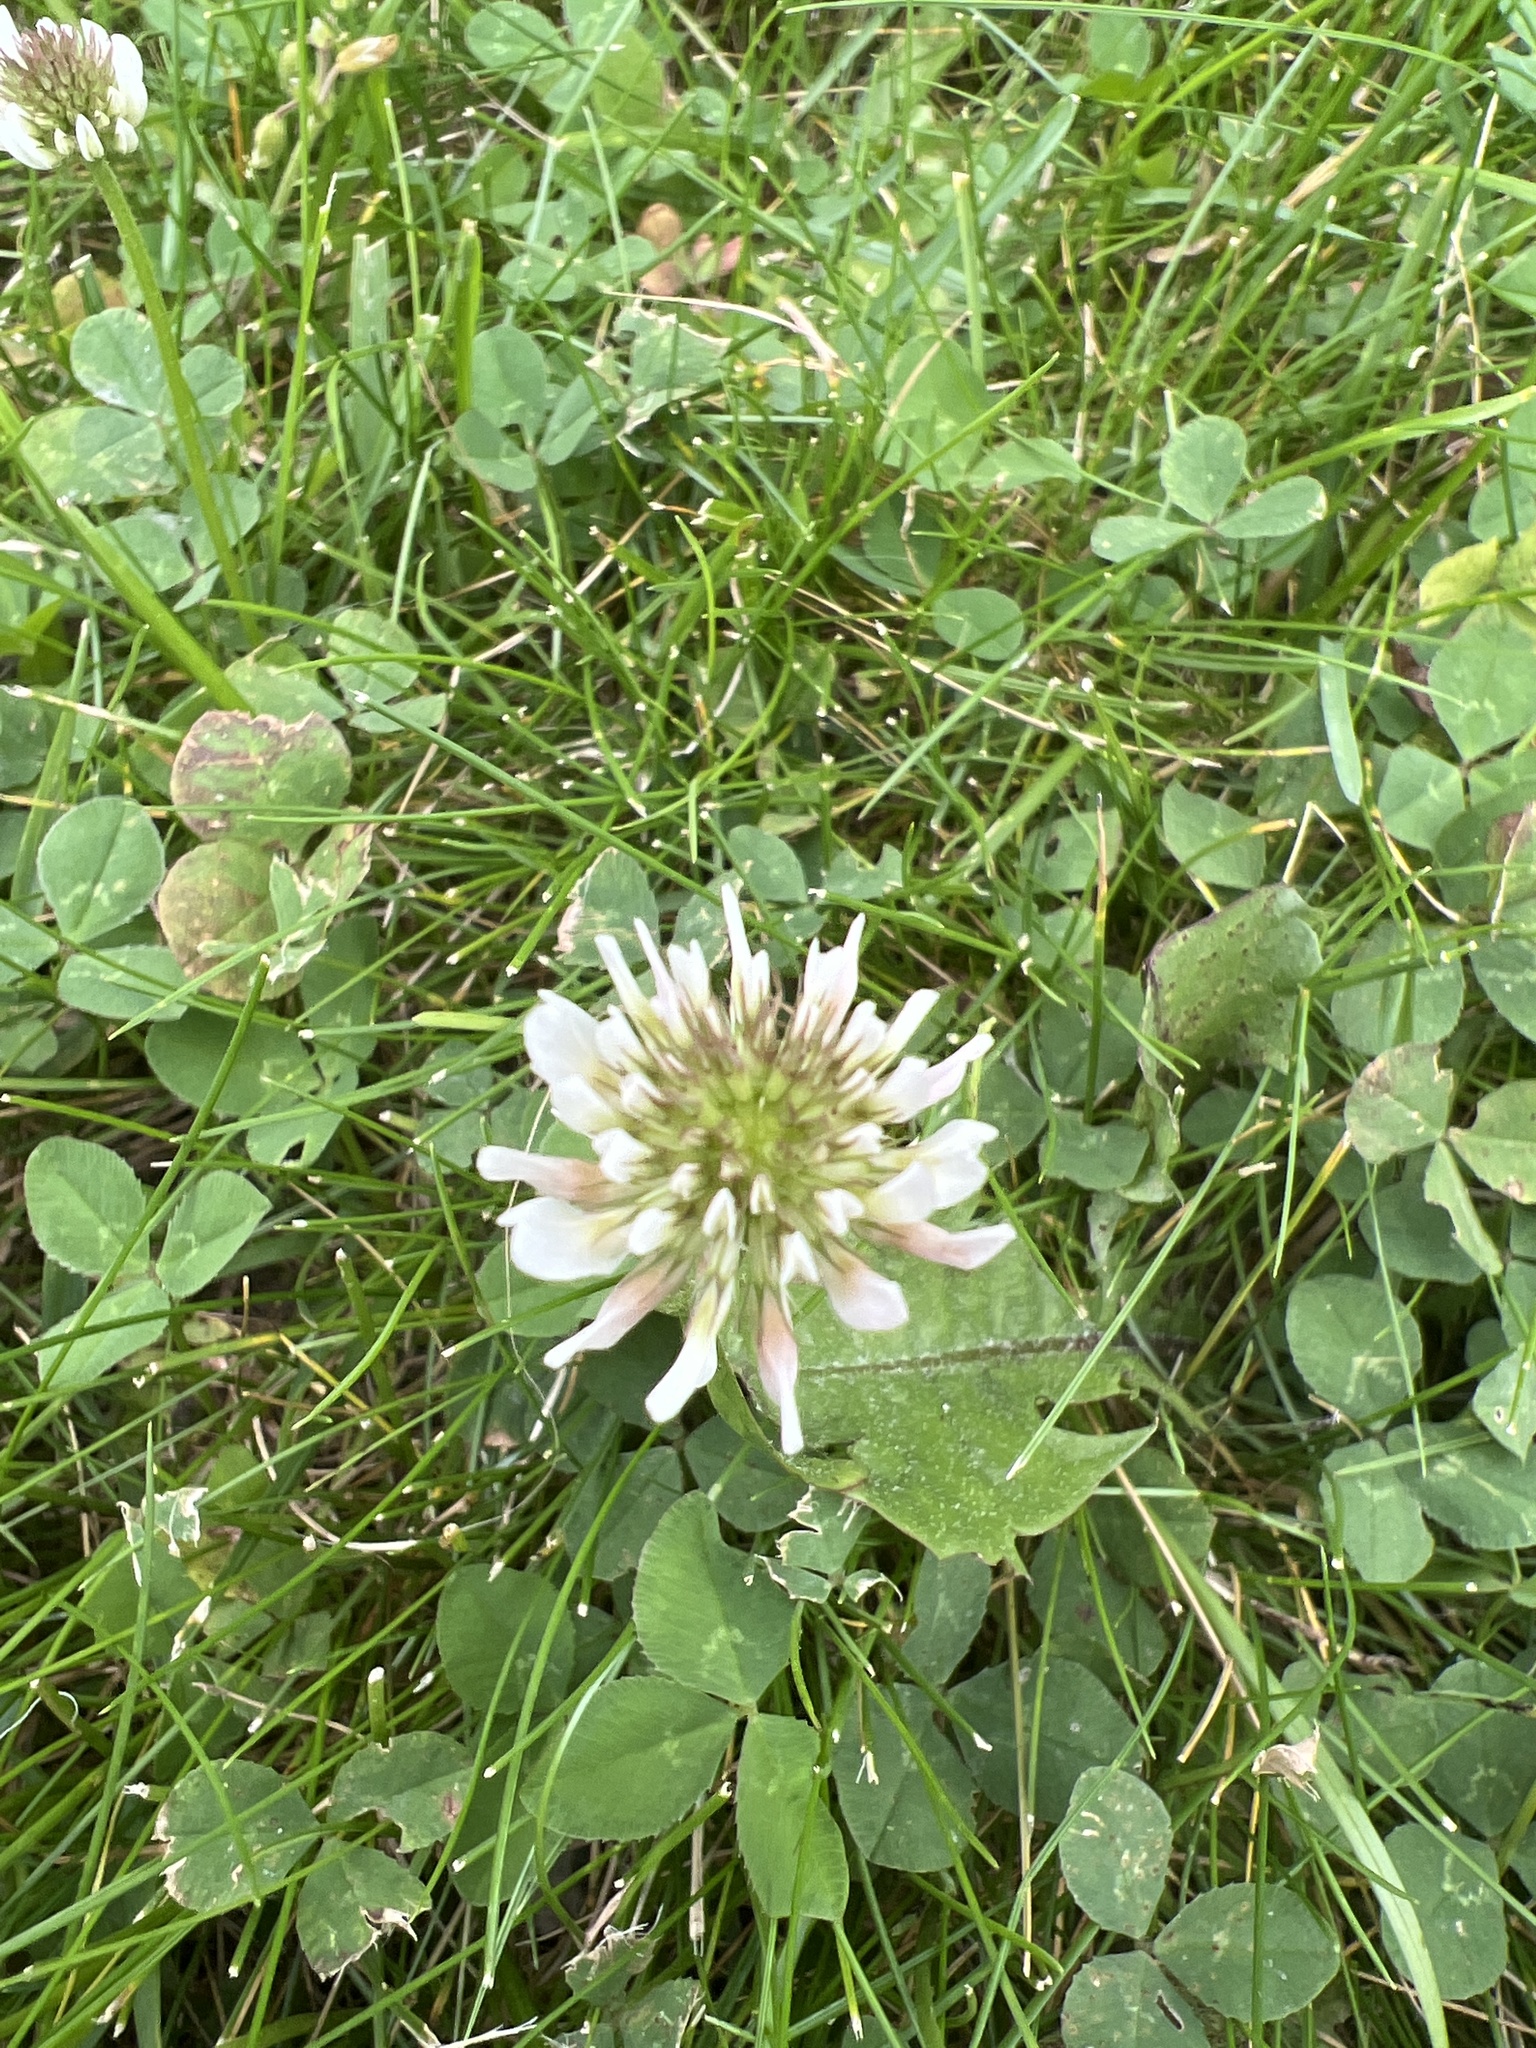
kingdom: Plantae
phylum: Tracheophyta
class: Magnoliopsida
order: Fabales
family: Fabaceae
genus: Trifolium
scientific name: Trifolium repens
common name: White clover
